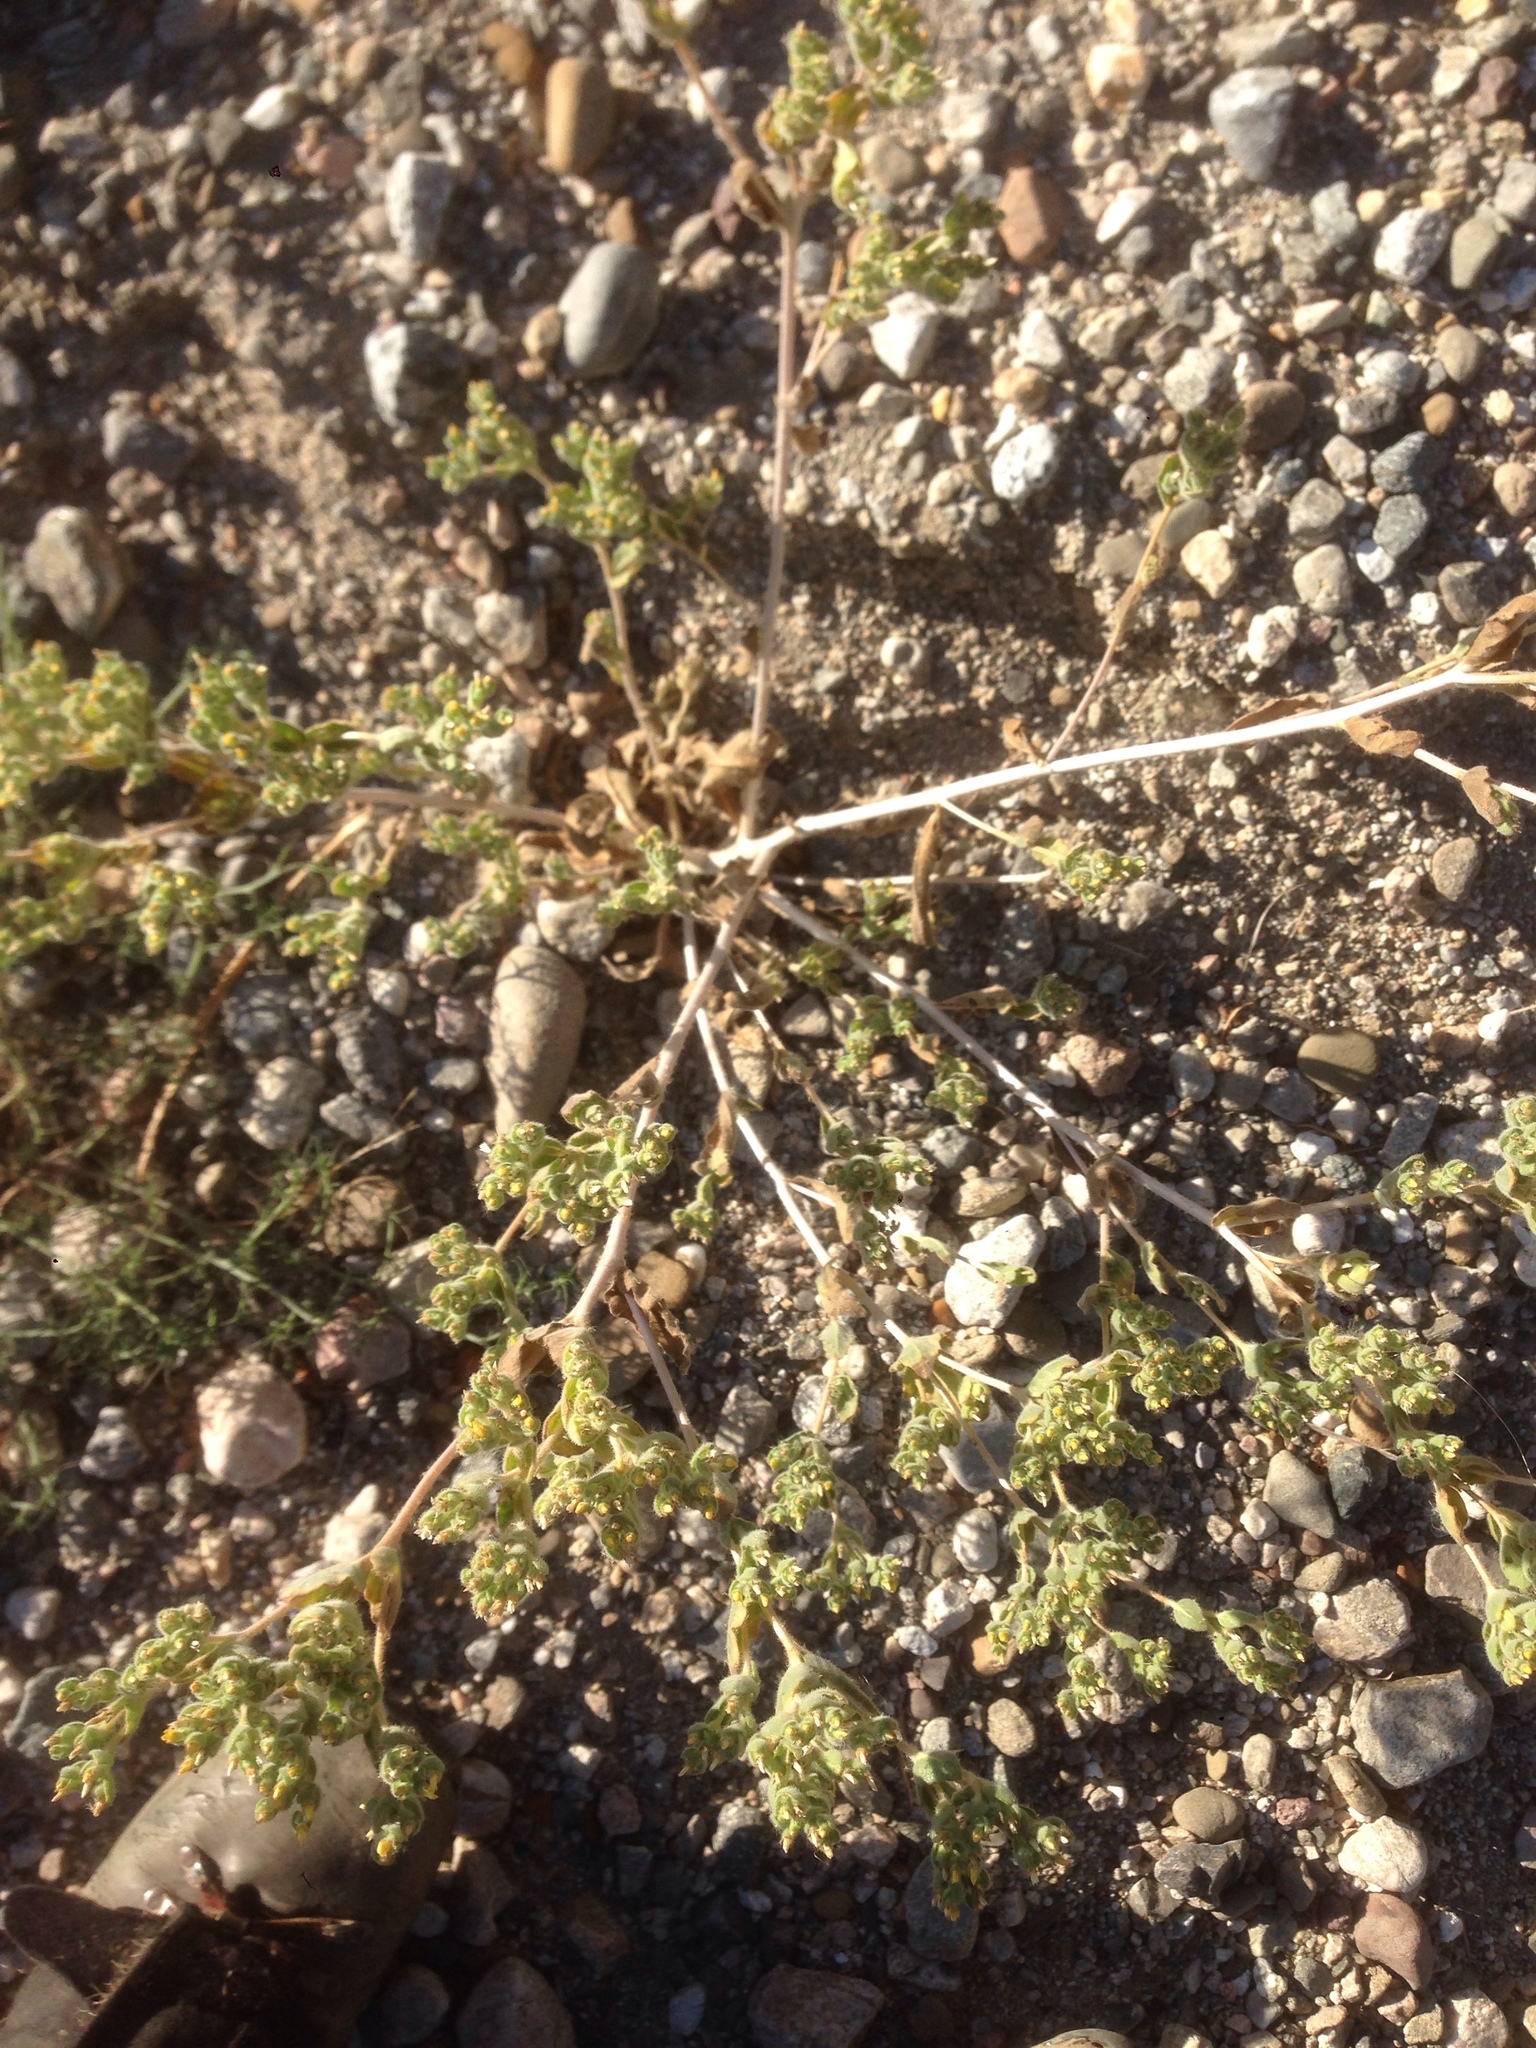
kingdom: Plantae
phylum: Tracheophyta
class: Magnoliopsida
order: Cornales
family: Loasaceae
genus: Mentzelia
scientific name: Mentzelia micrantha
